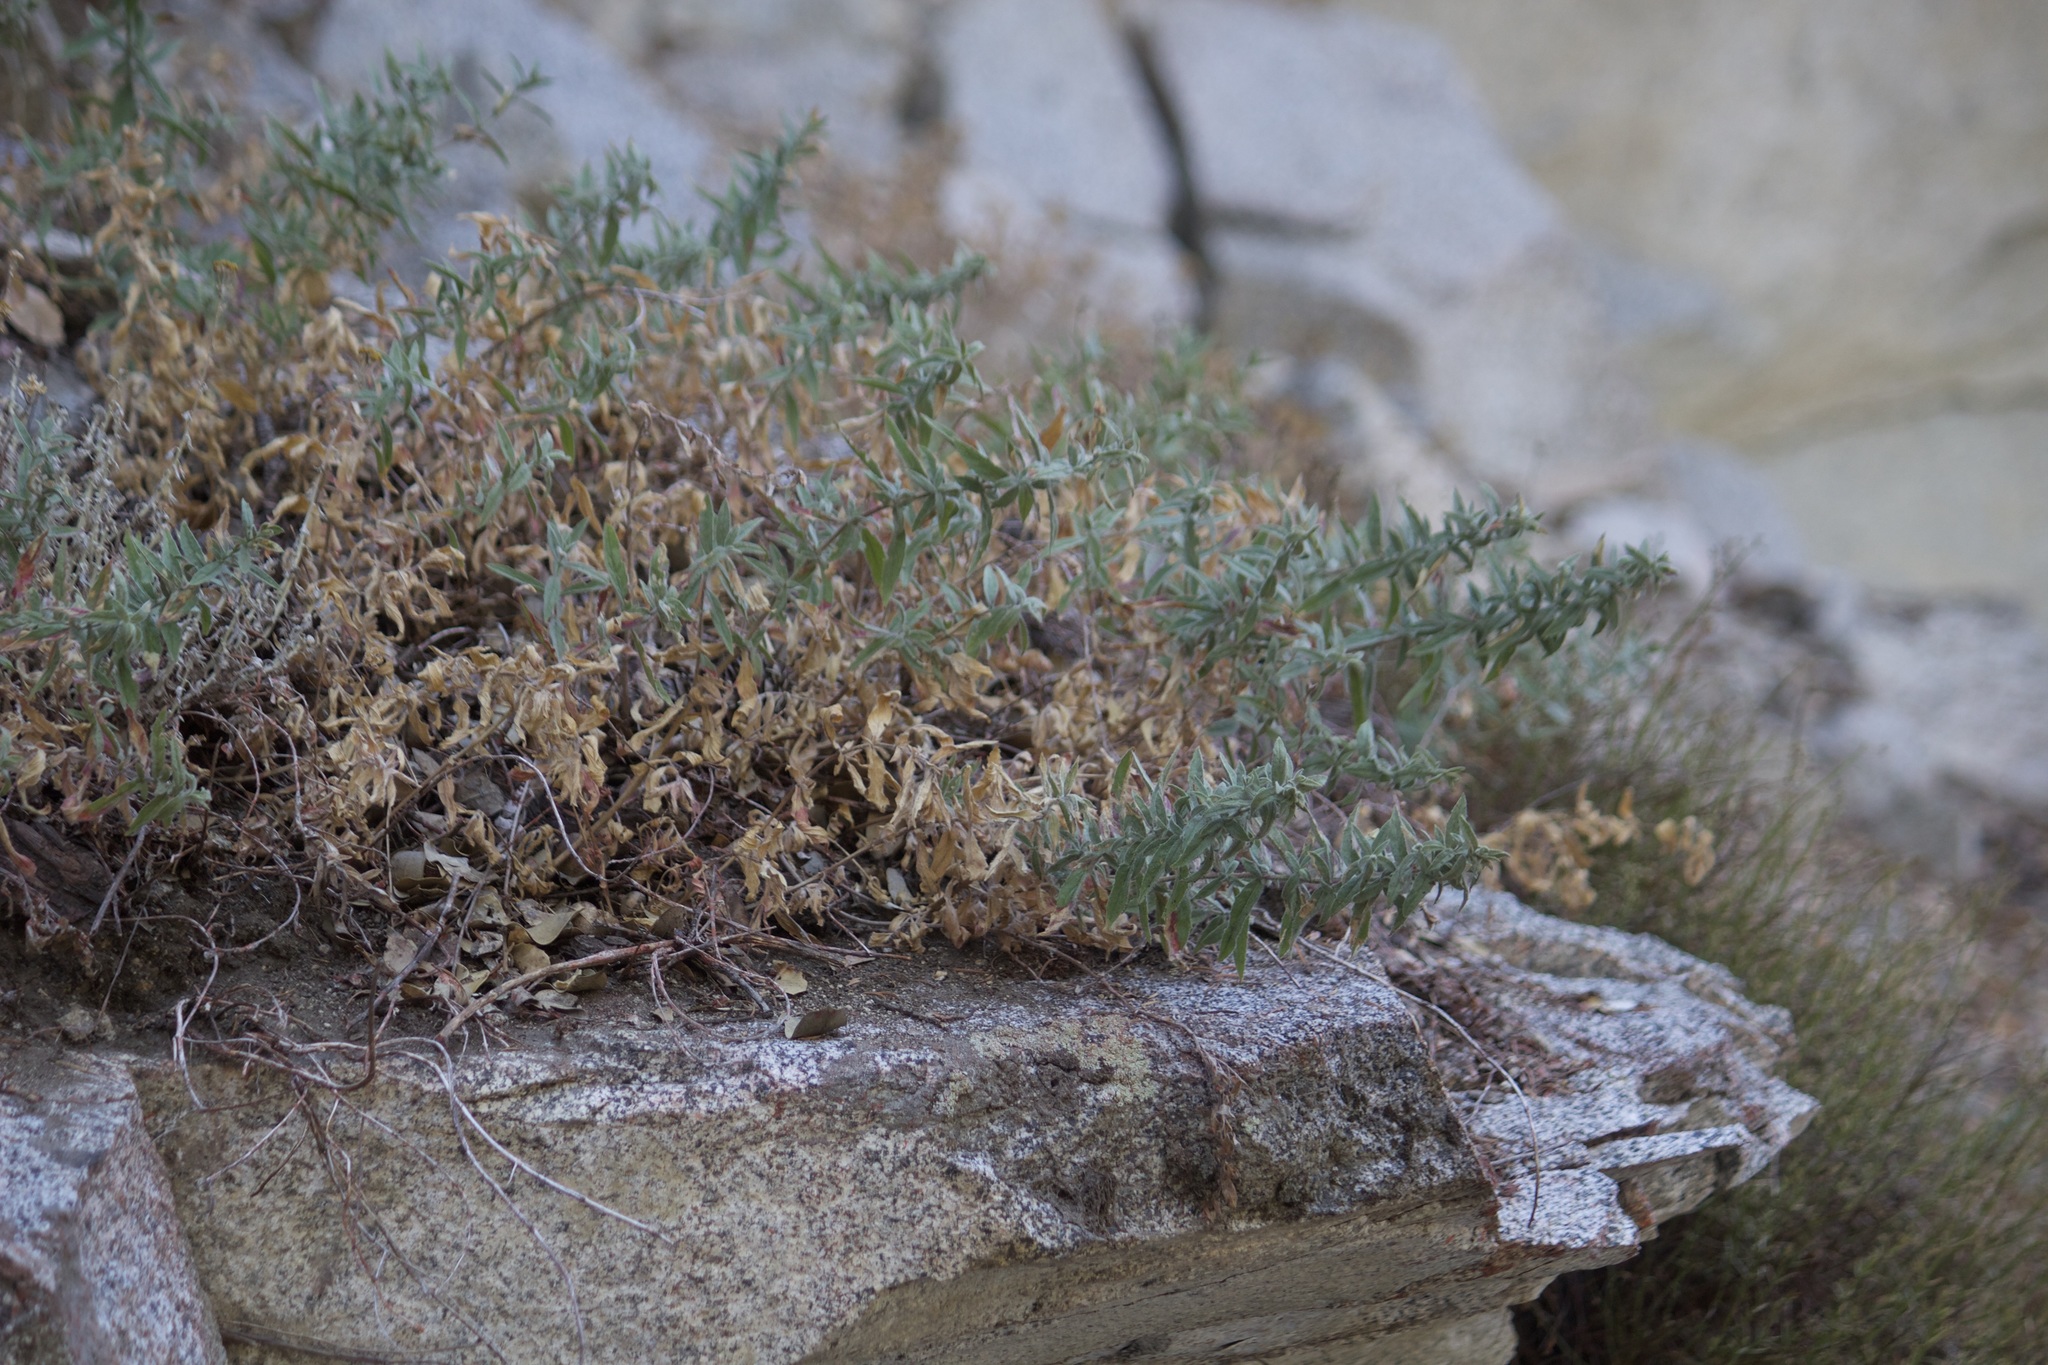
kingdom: Plantae
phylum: Tracheophyta
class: Magnoliopsida
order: Myrtales
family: Onagraceae
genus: Epilobium
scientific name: Epilobium canum
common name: California-fuchsia
